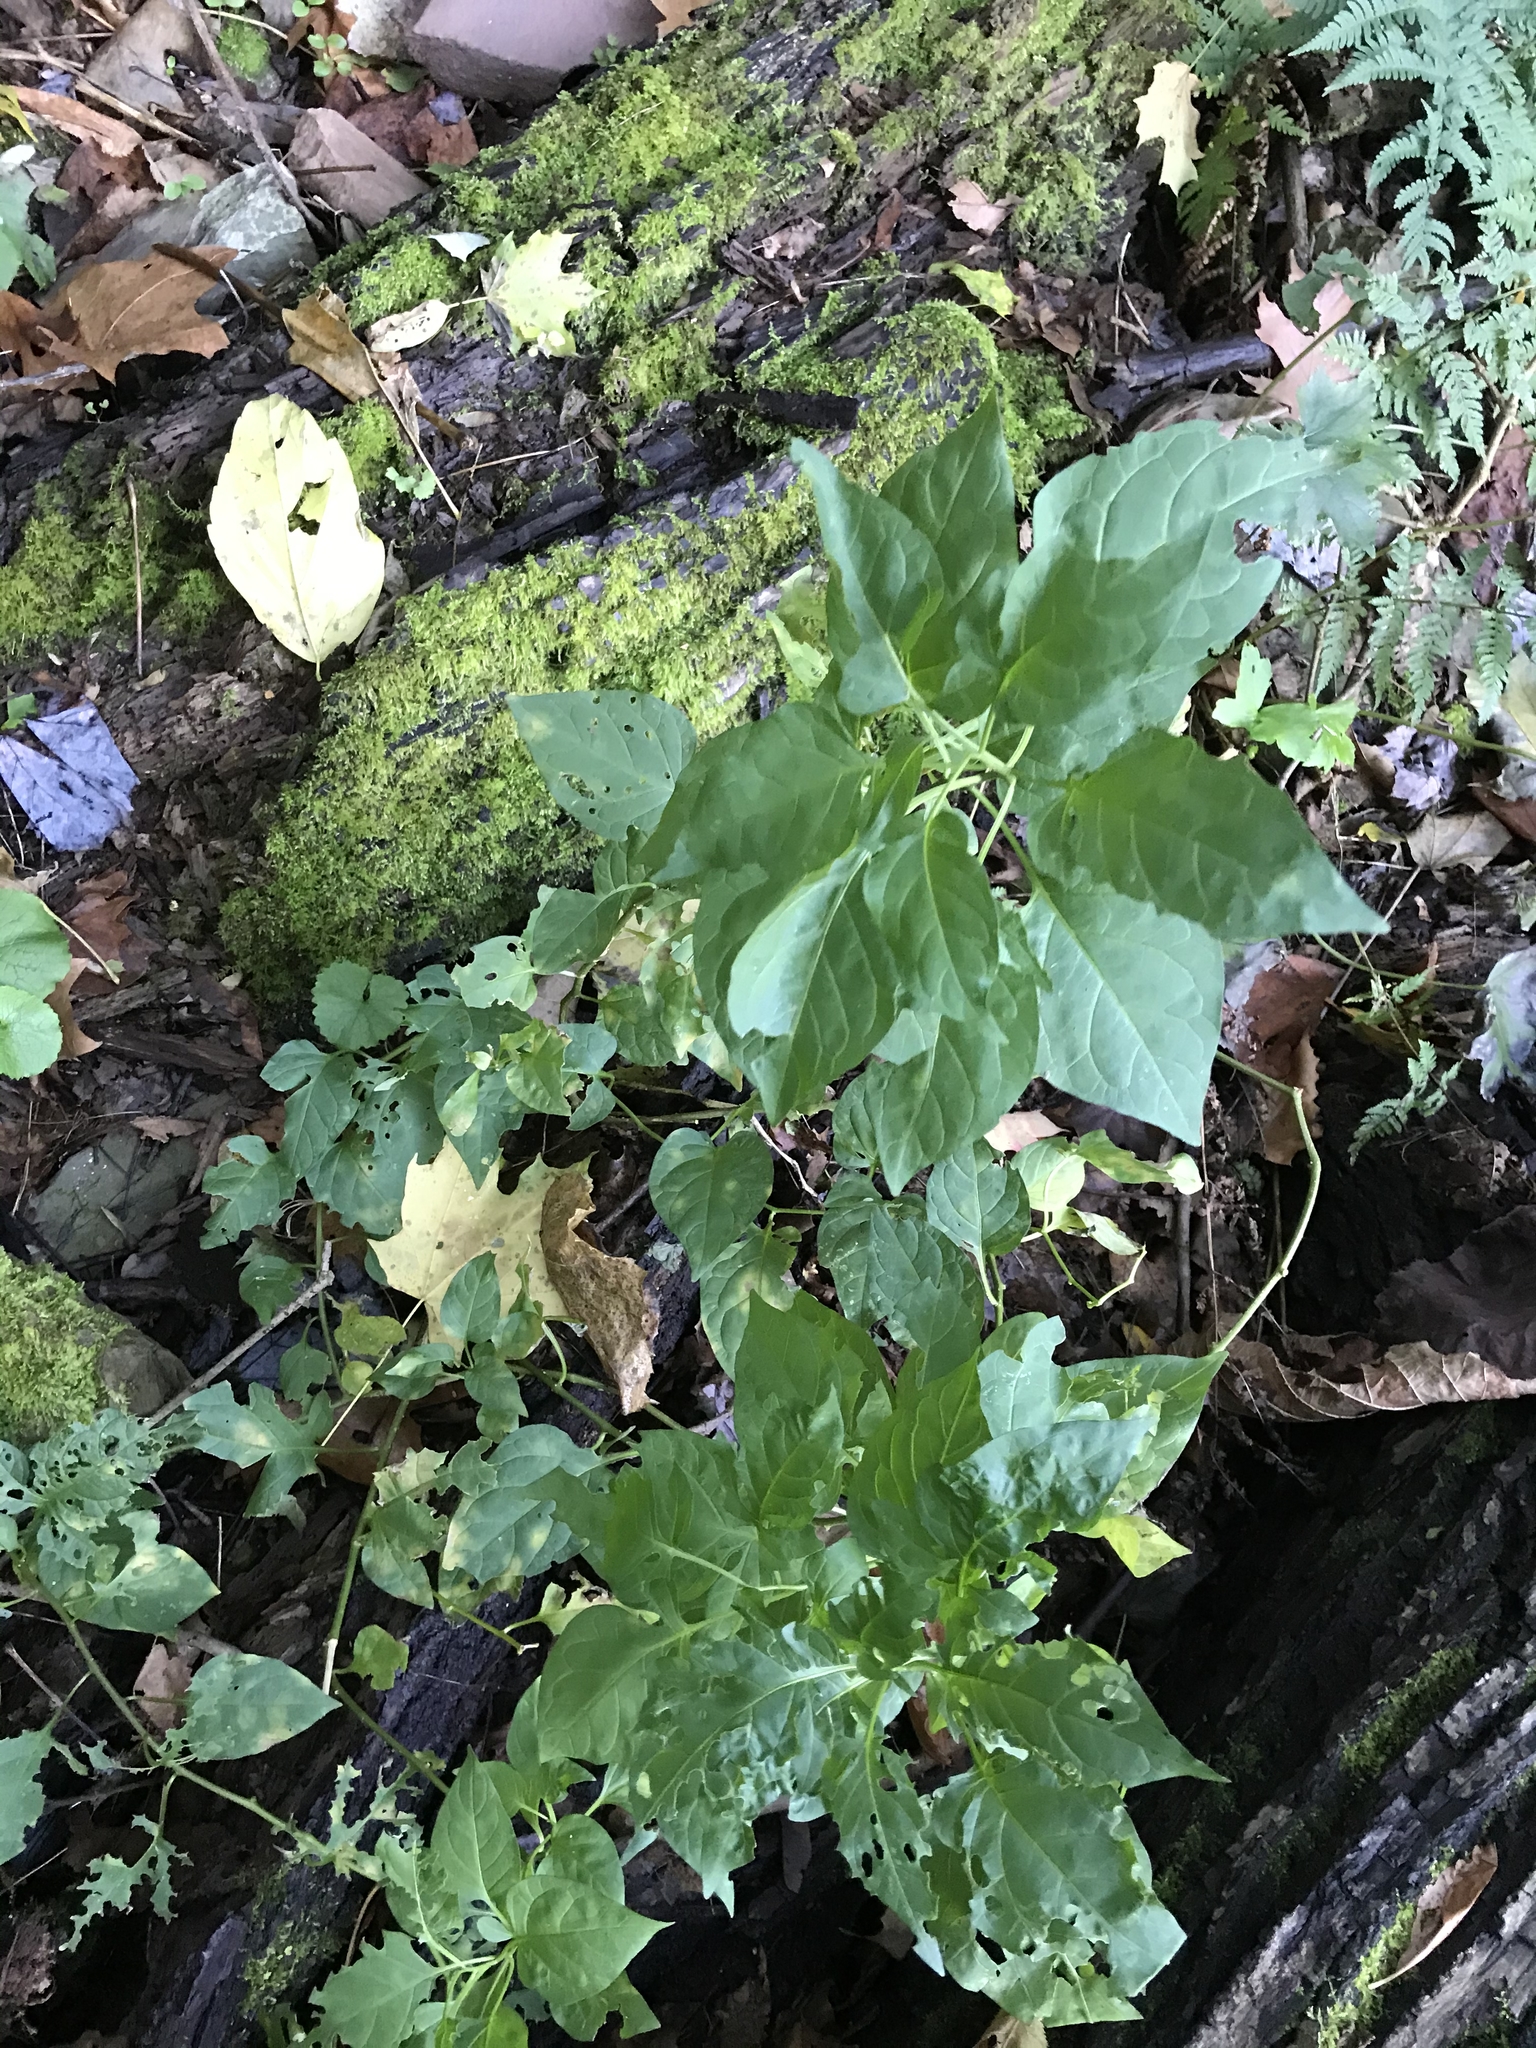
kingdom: Plantae
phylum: Tracheophyta
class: Magnoliopsida
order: Solanales
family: Solanaceae
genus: Solanum
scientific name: Solanum dulcamara
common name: Climbing nightshade
